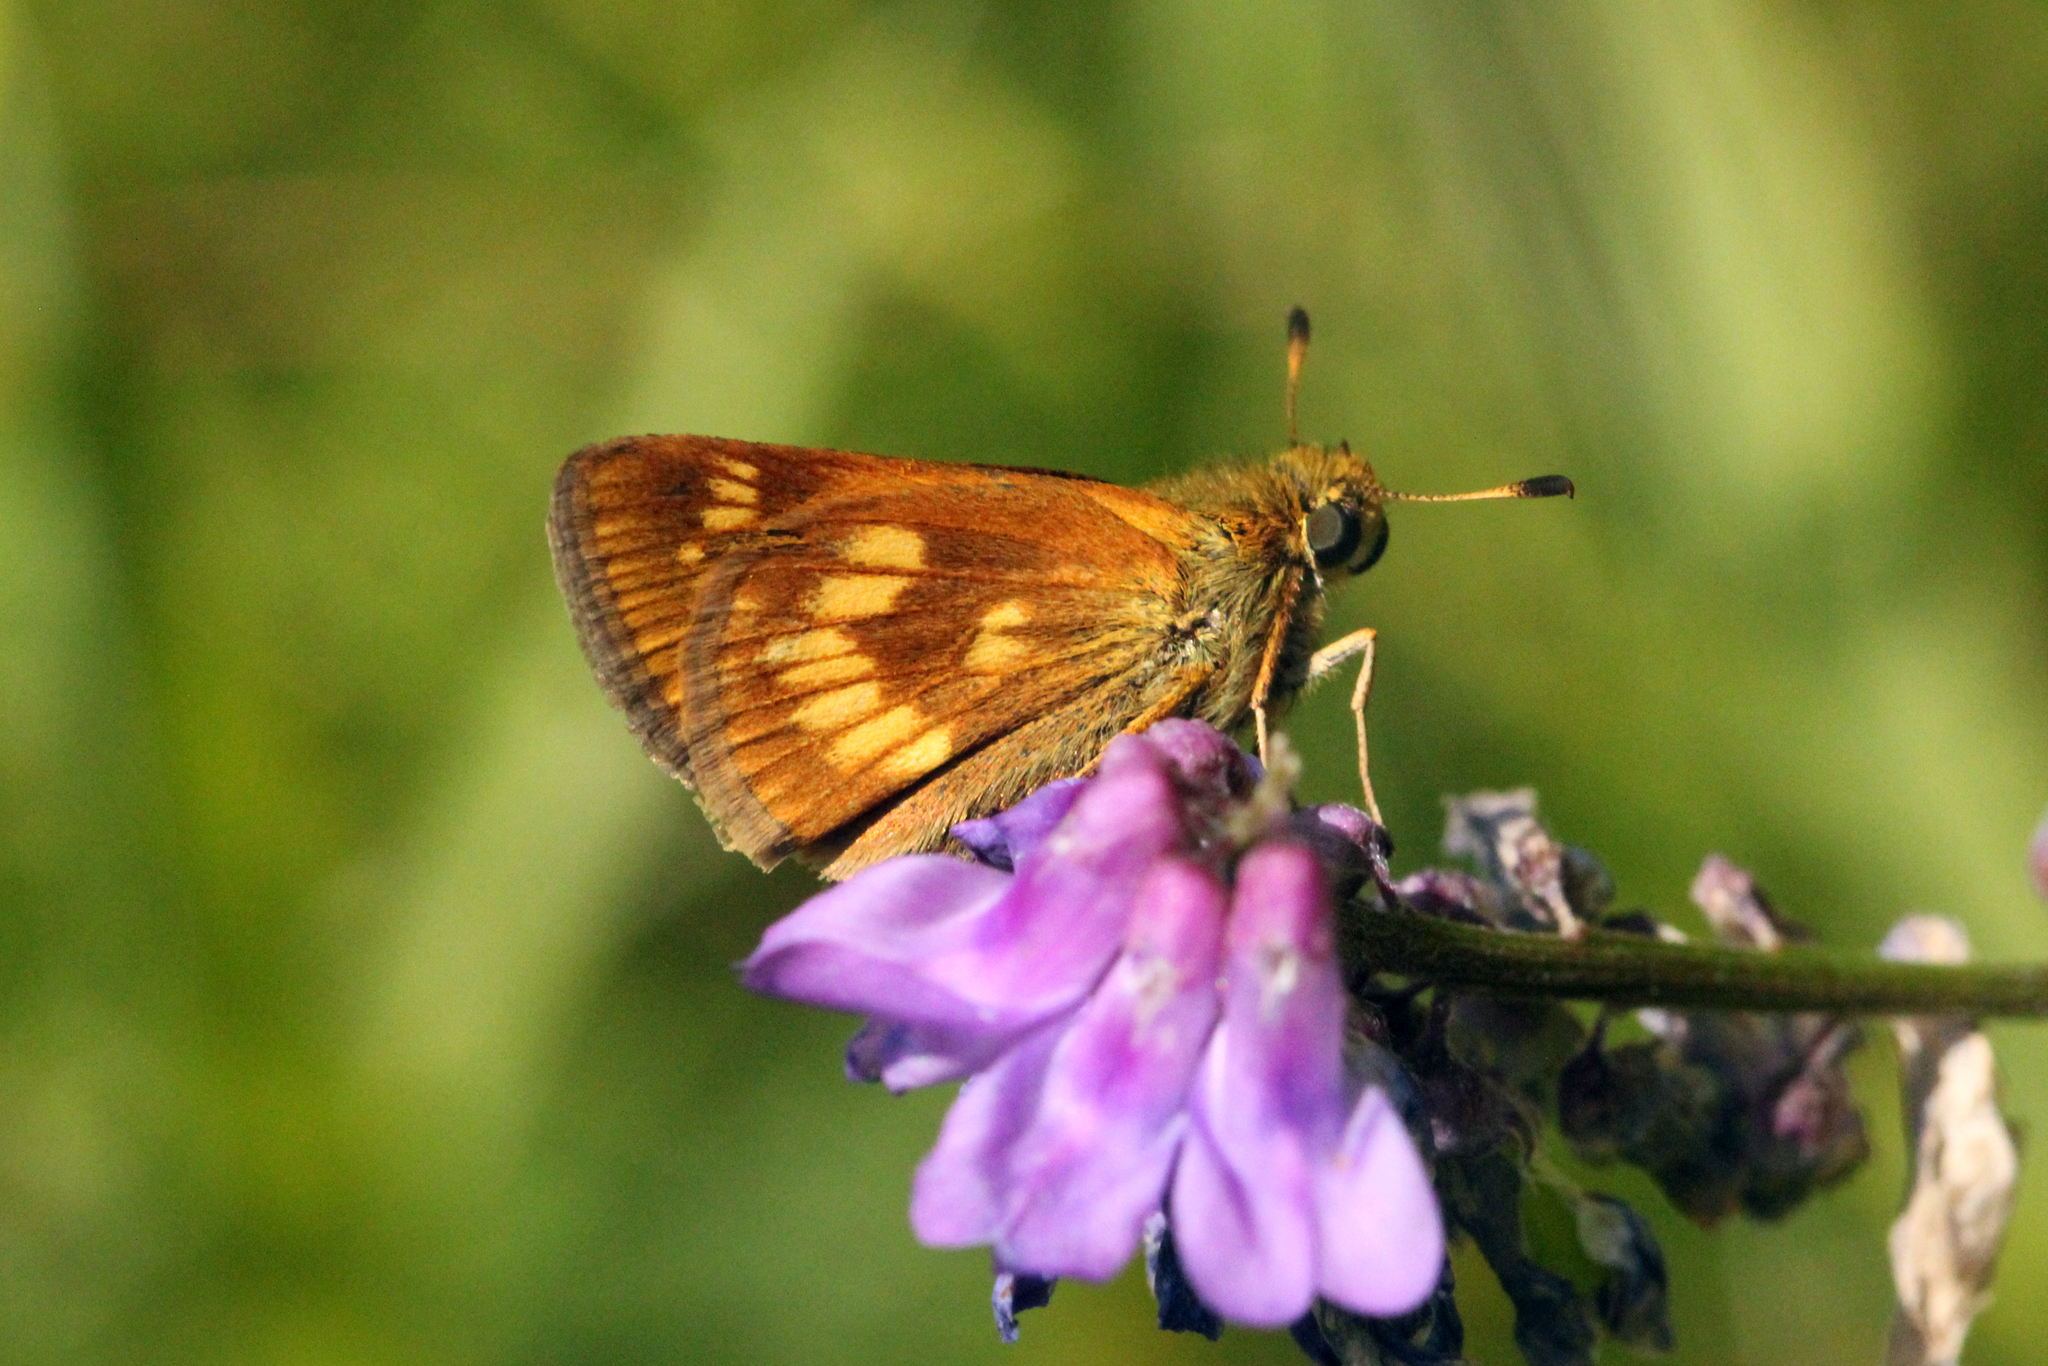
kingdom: Animalia
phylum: Arthropoda
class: Insecta
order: Lepidoptera
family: Hesperiidae
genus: Polites
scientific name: Polites mystic
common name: Long dash
